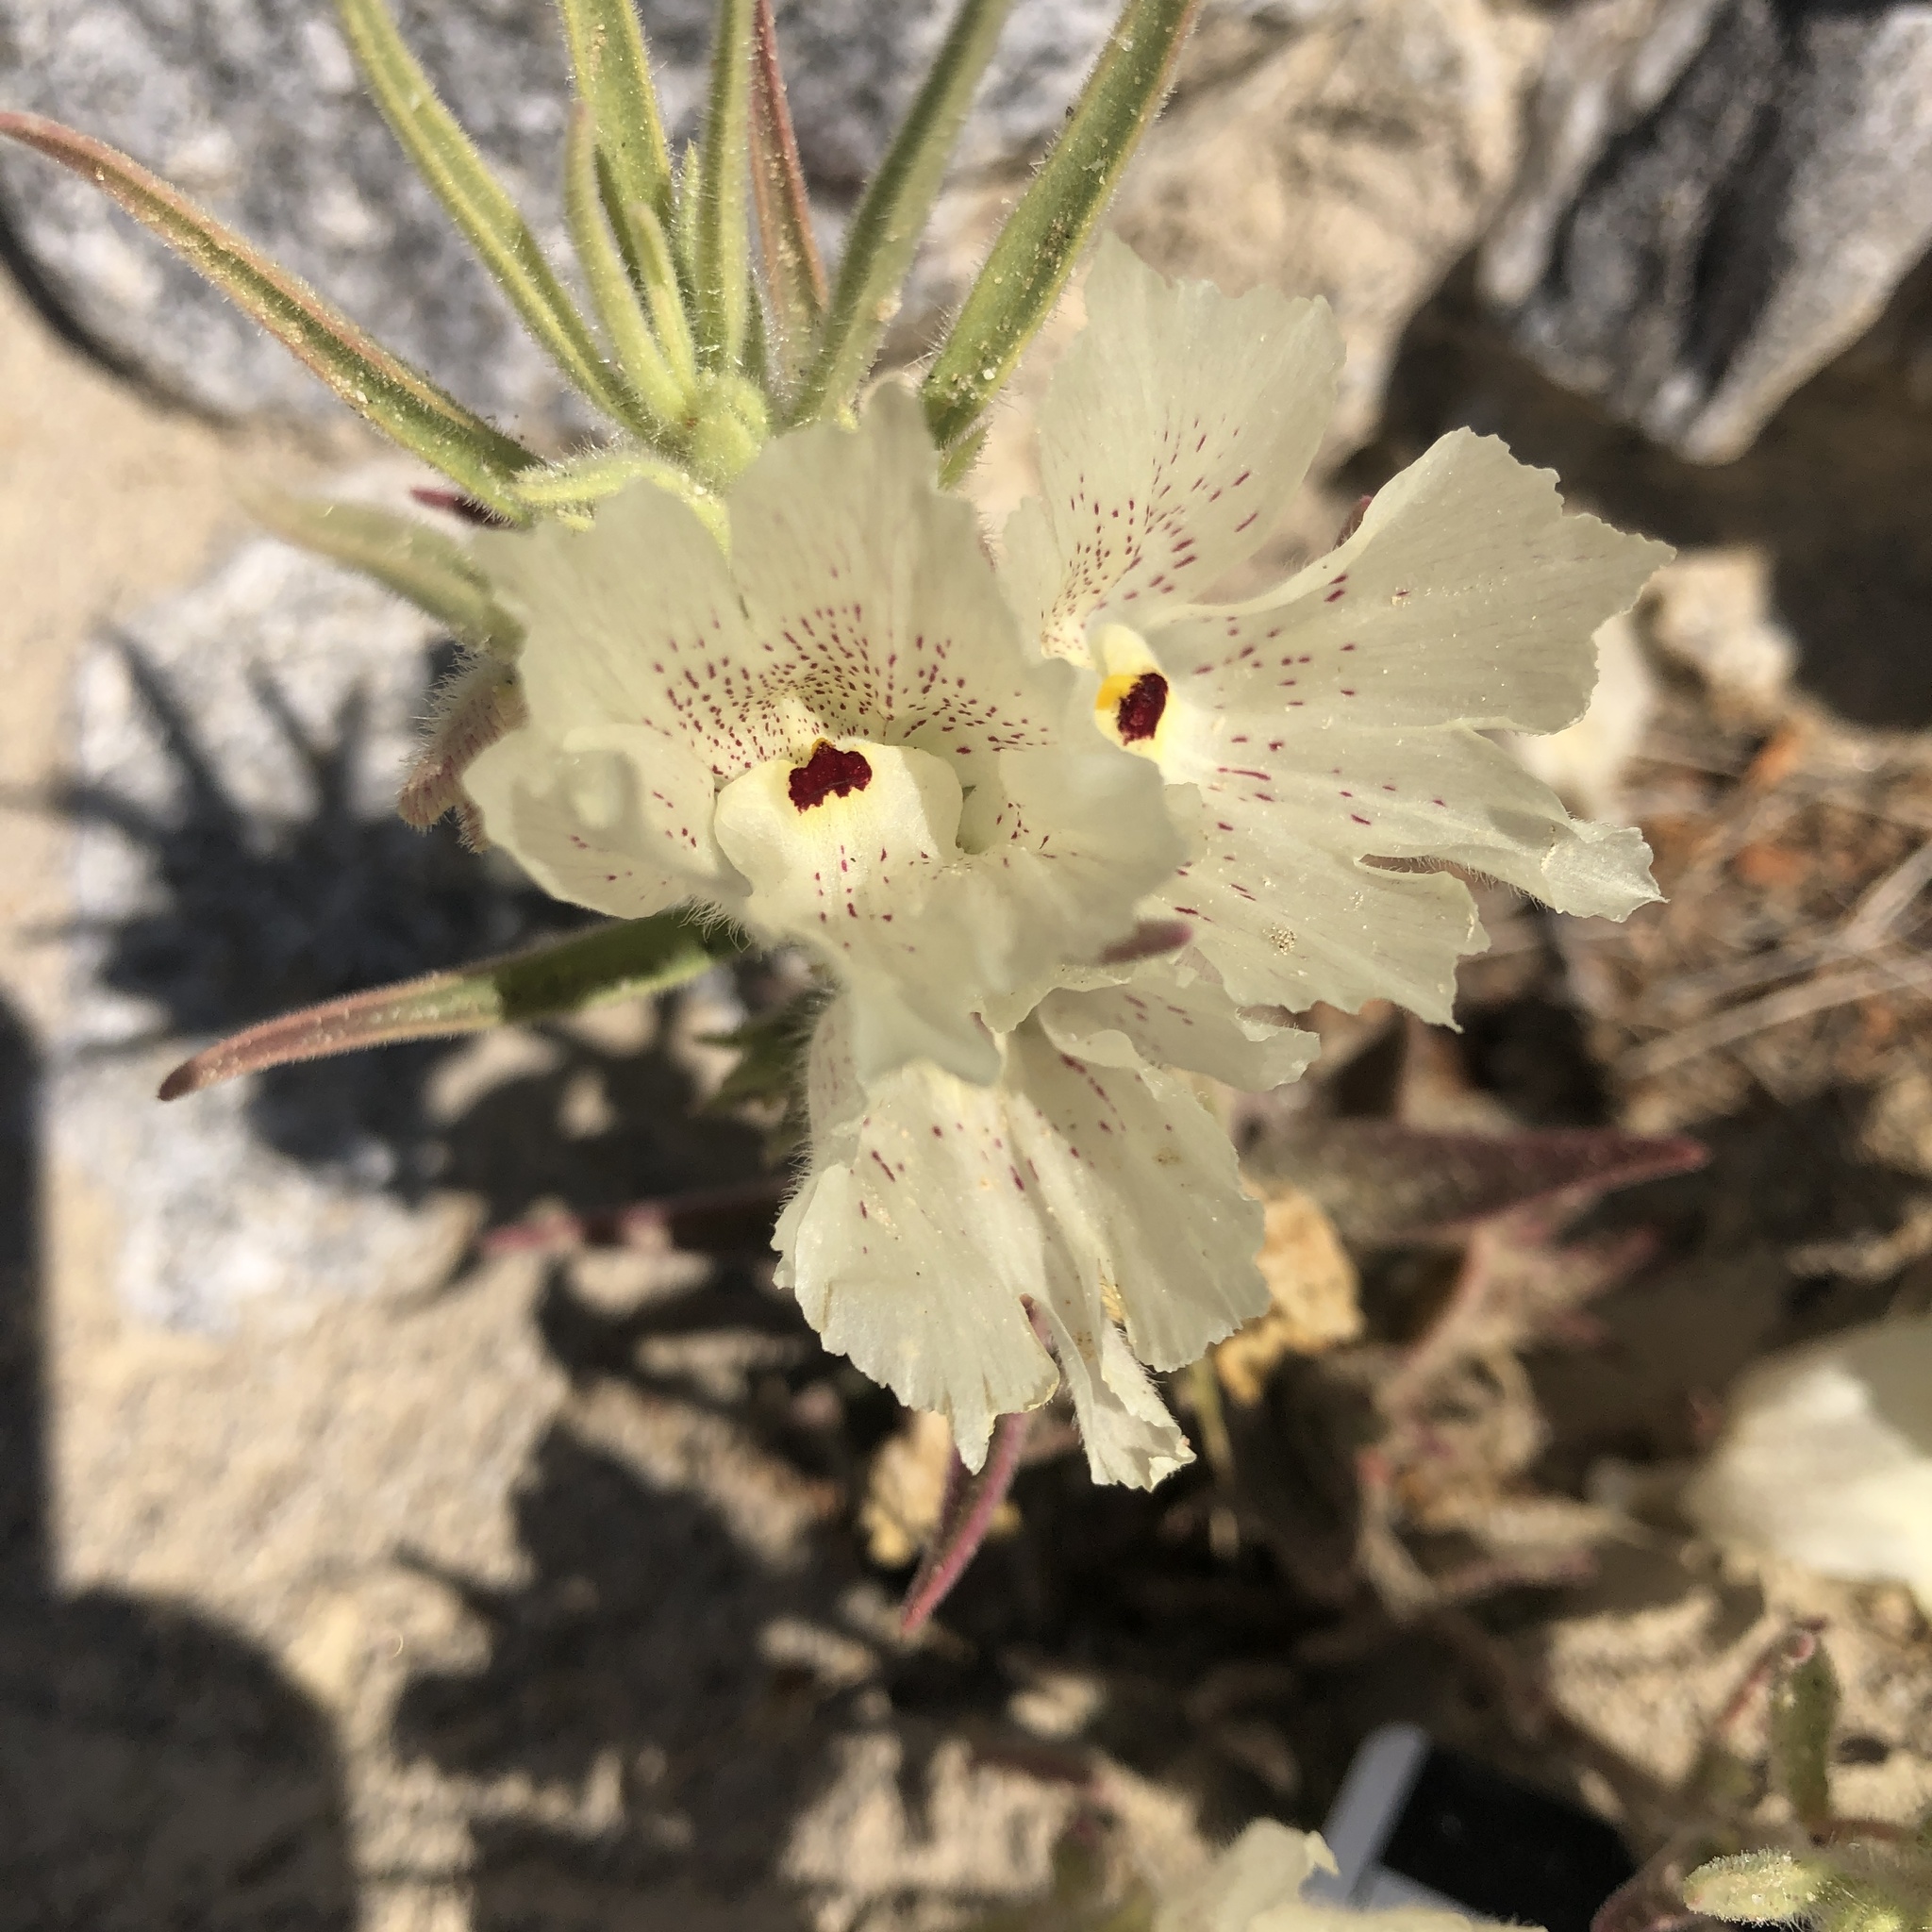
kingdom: Plantae
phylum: Tracheophyta
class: Magnoliopsida
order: Lamiales
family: Plantaginaceae
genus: Mohavea
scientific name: Mohavea confertiflora
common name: Ghost flower
